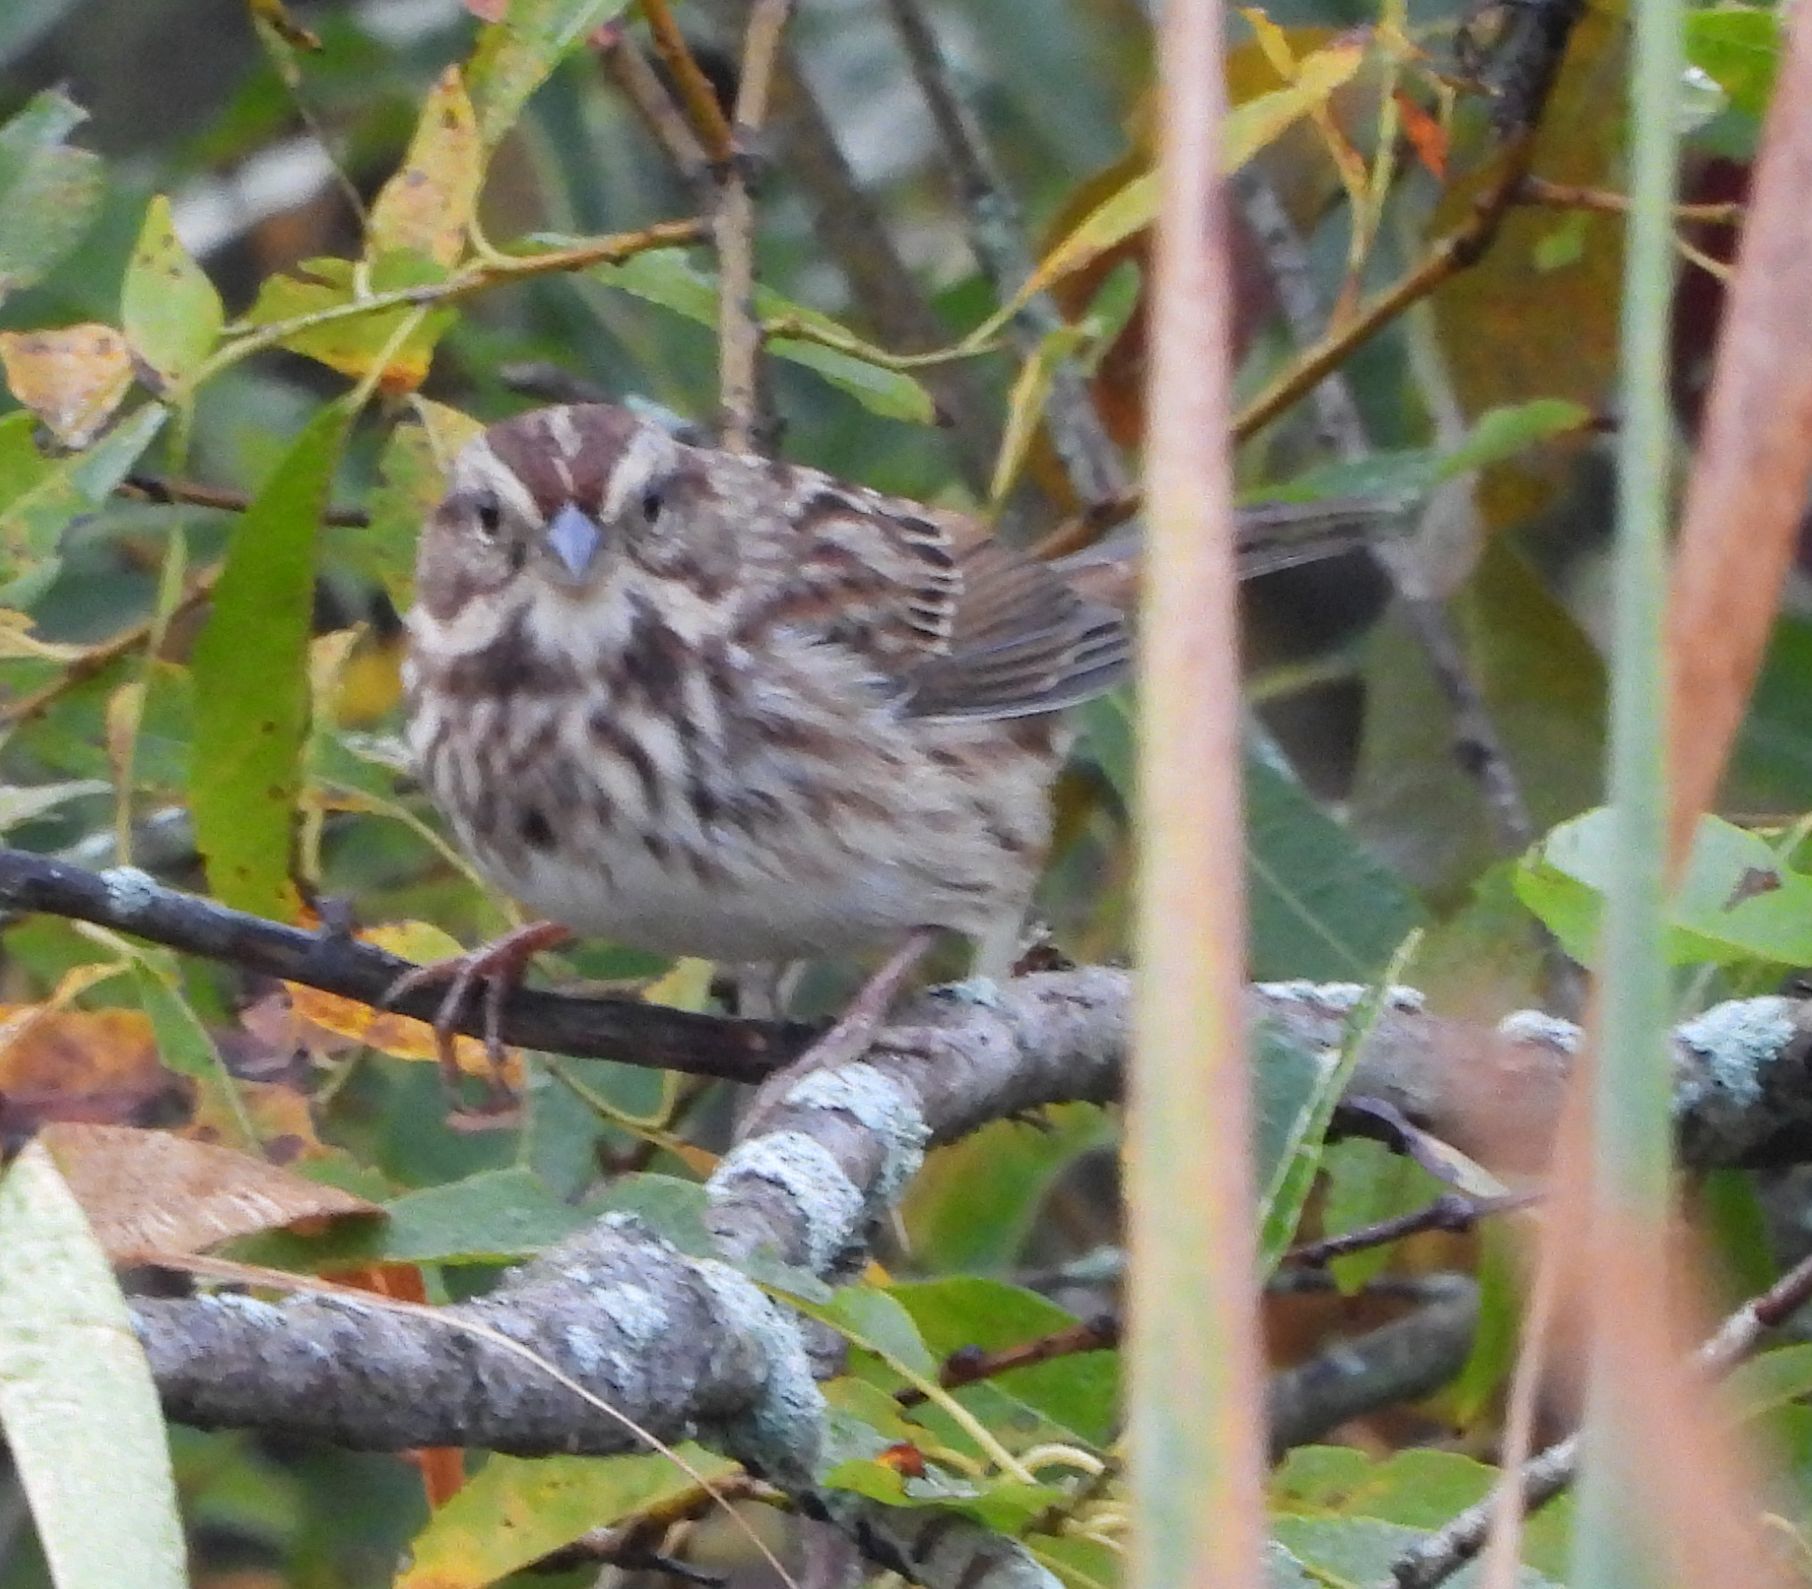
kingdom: Animalia
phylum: Chordata
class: Aves
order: Passeriformes
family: Passerellidae
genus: Melospiza
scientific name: Melospiza melodia
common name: Song sparrow
